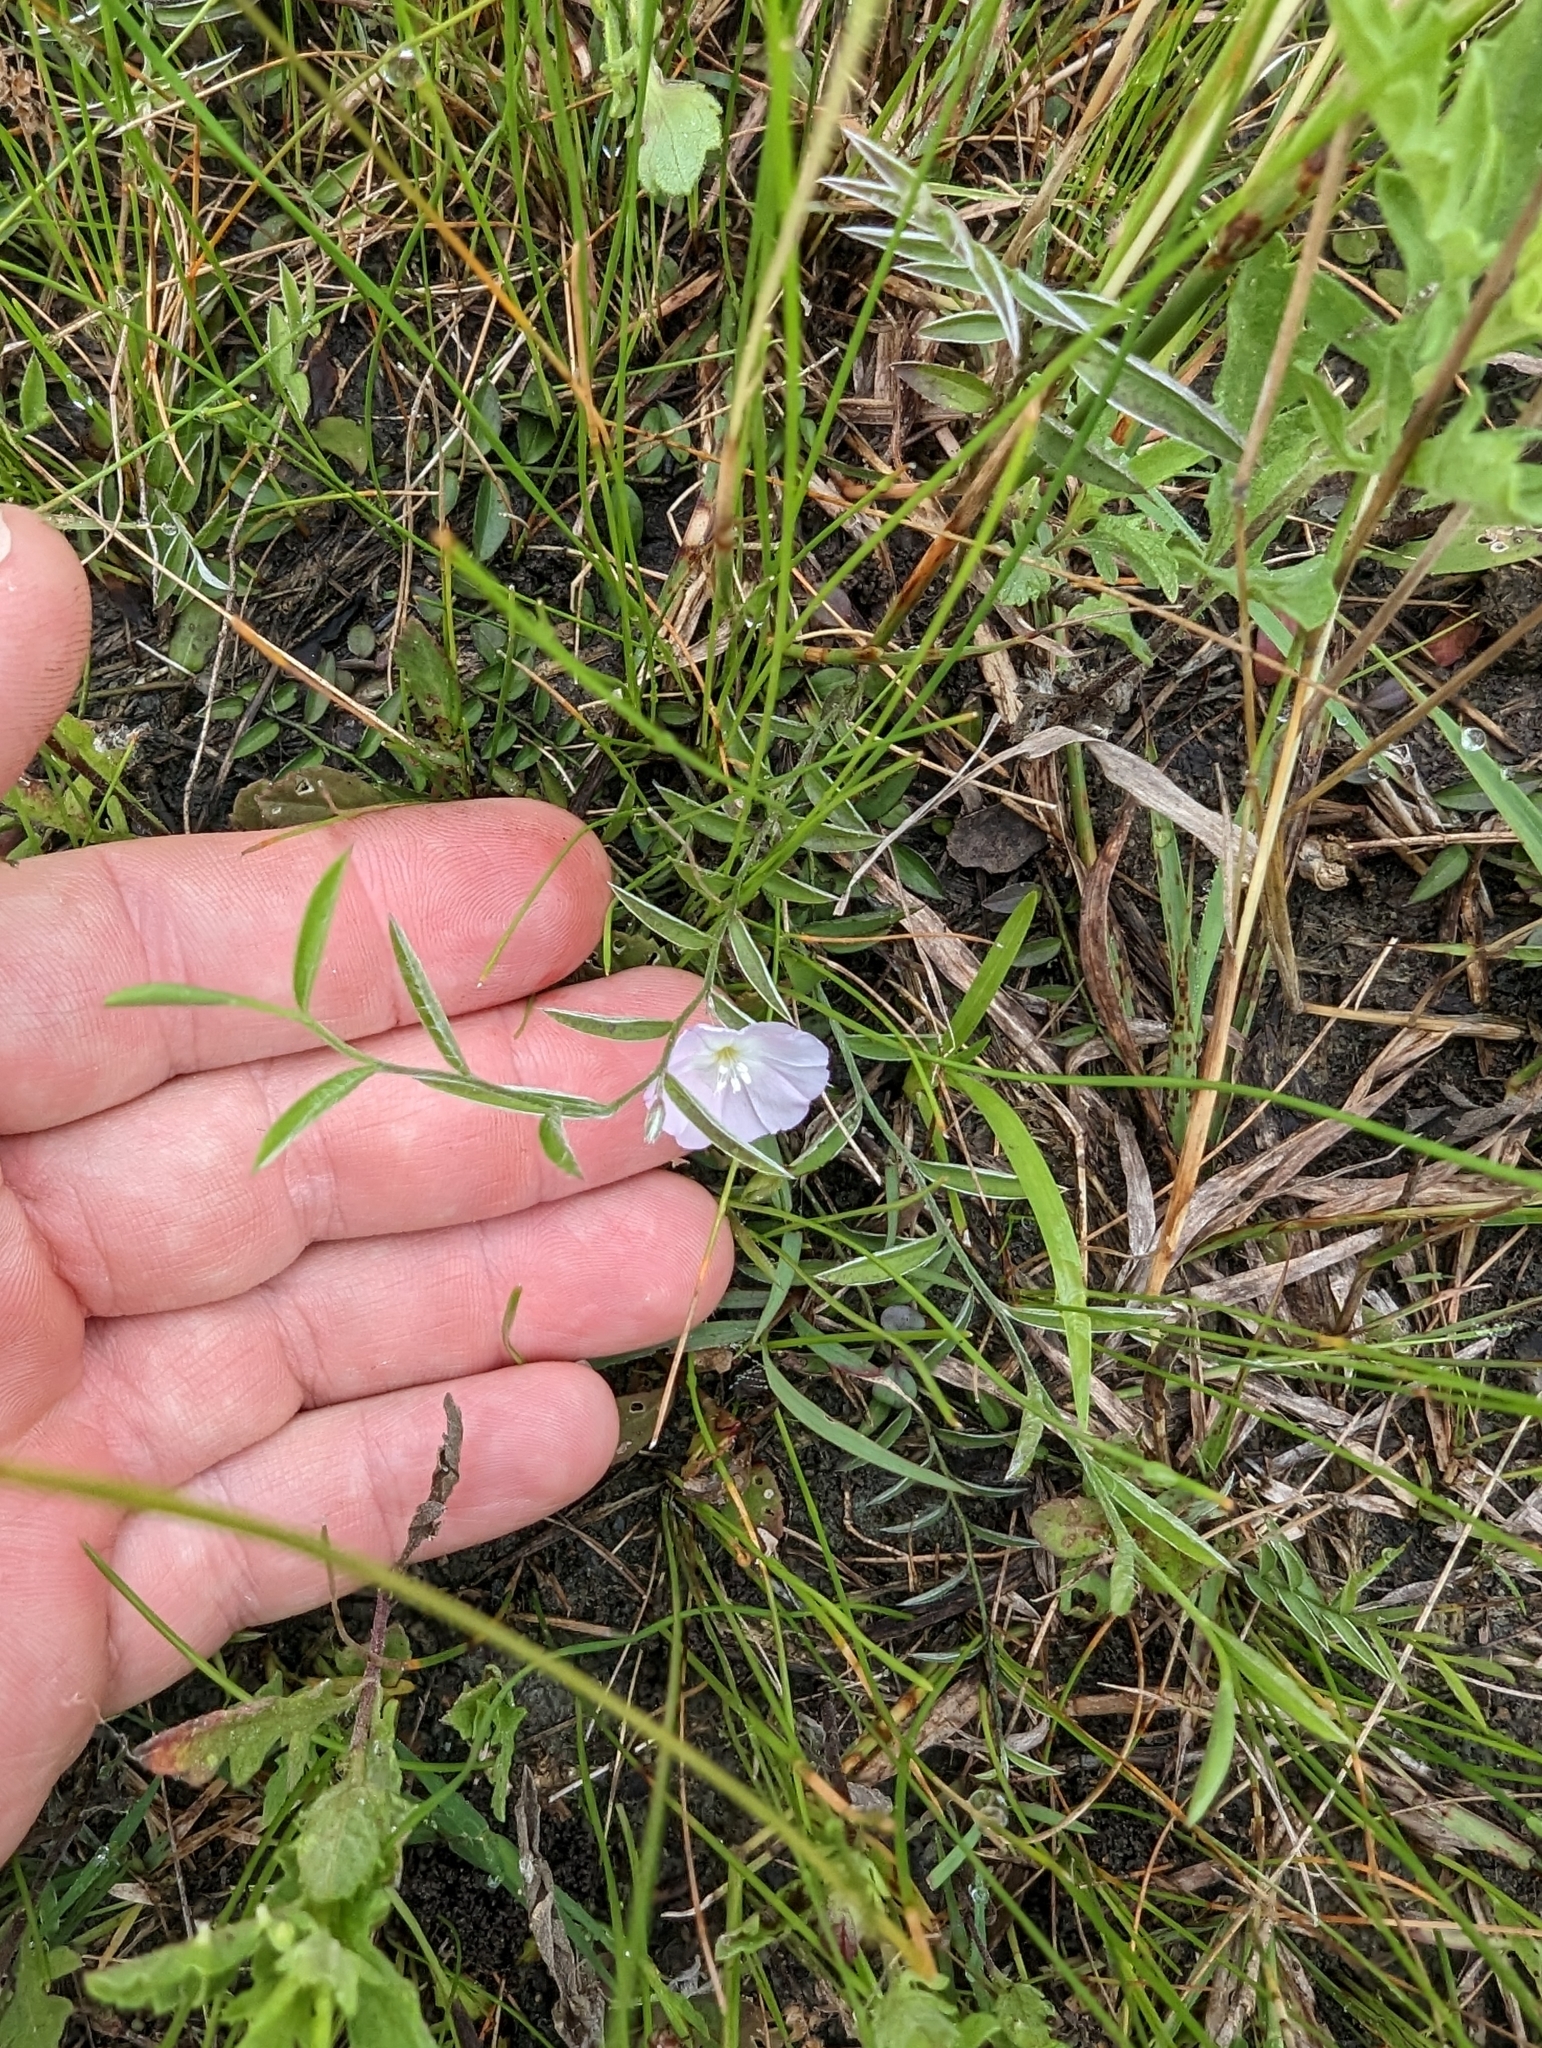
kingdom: Plantae
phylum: Tracheophyta
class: Magnoliopsida
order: Solanales
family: Convolvulaceae
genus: Evolvulus
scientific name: Evolvulus sericeus
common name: Blue dots
